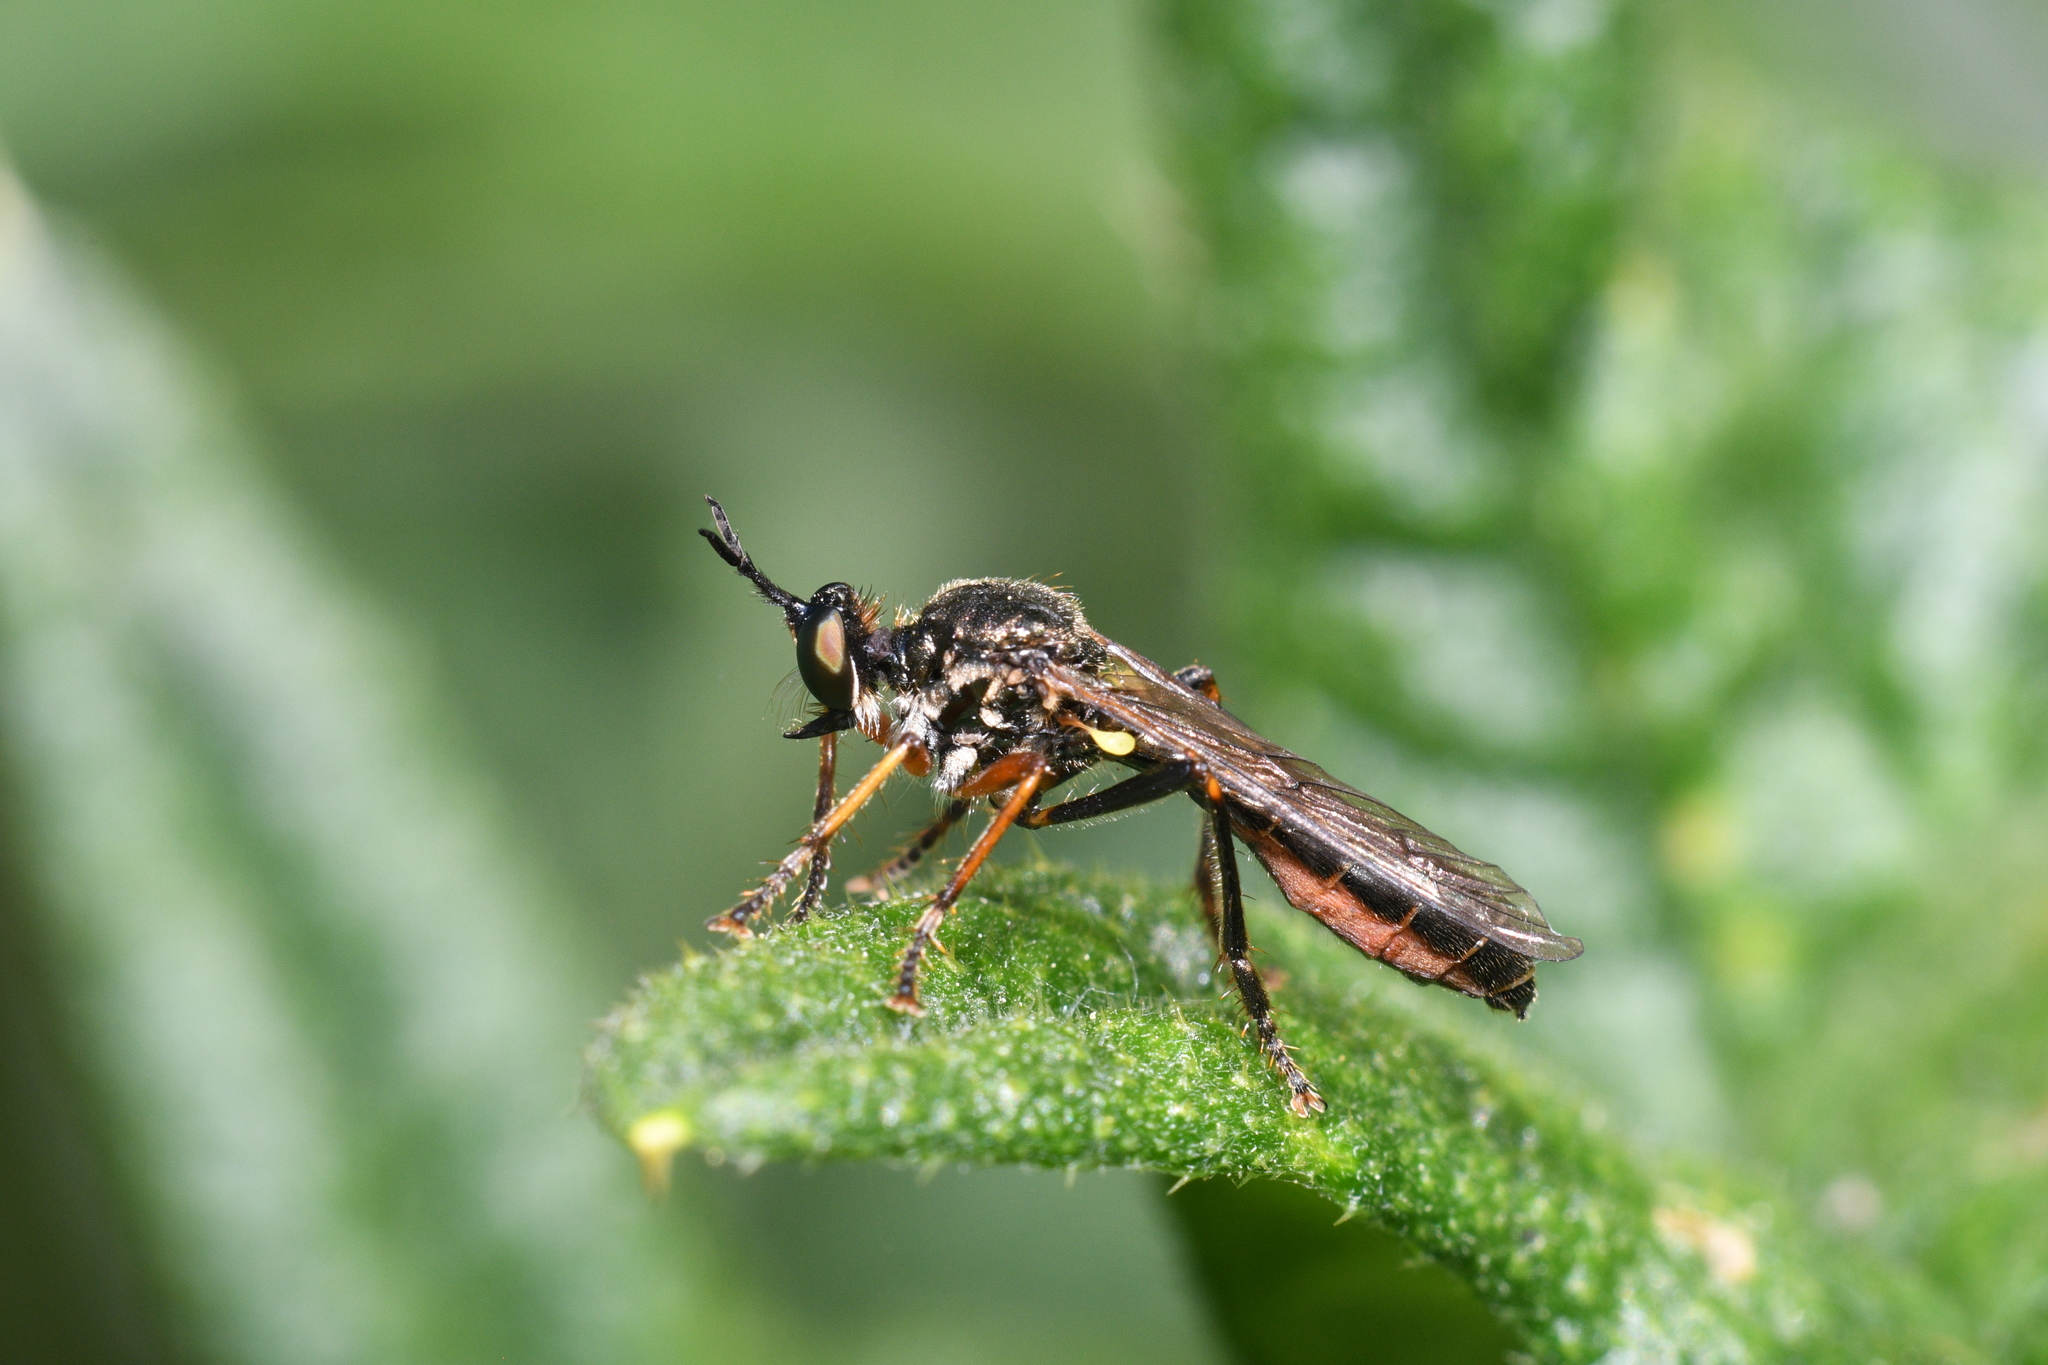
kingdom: Animalia
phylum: Arthropoda
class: Insecta
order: Diptera
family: Asilidae
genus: Dioctria
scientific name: Dioctria rufipes
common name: Common red-legged robberfly
